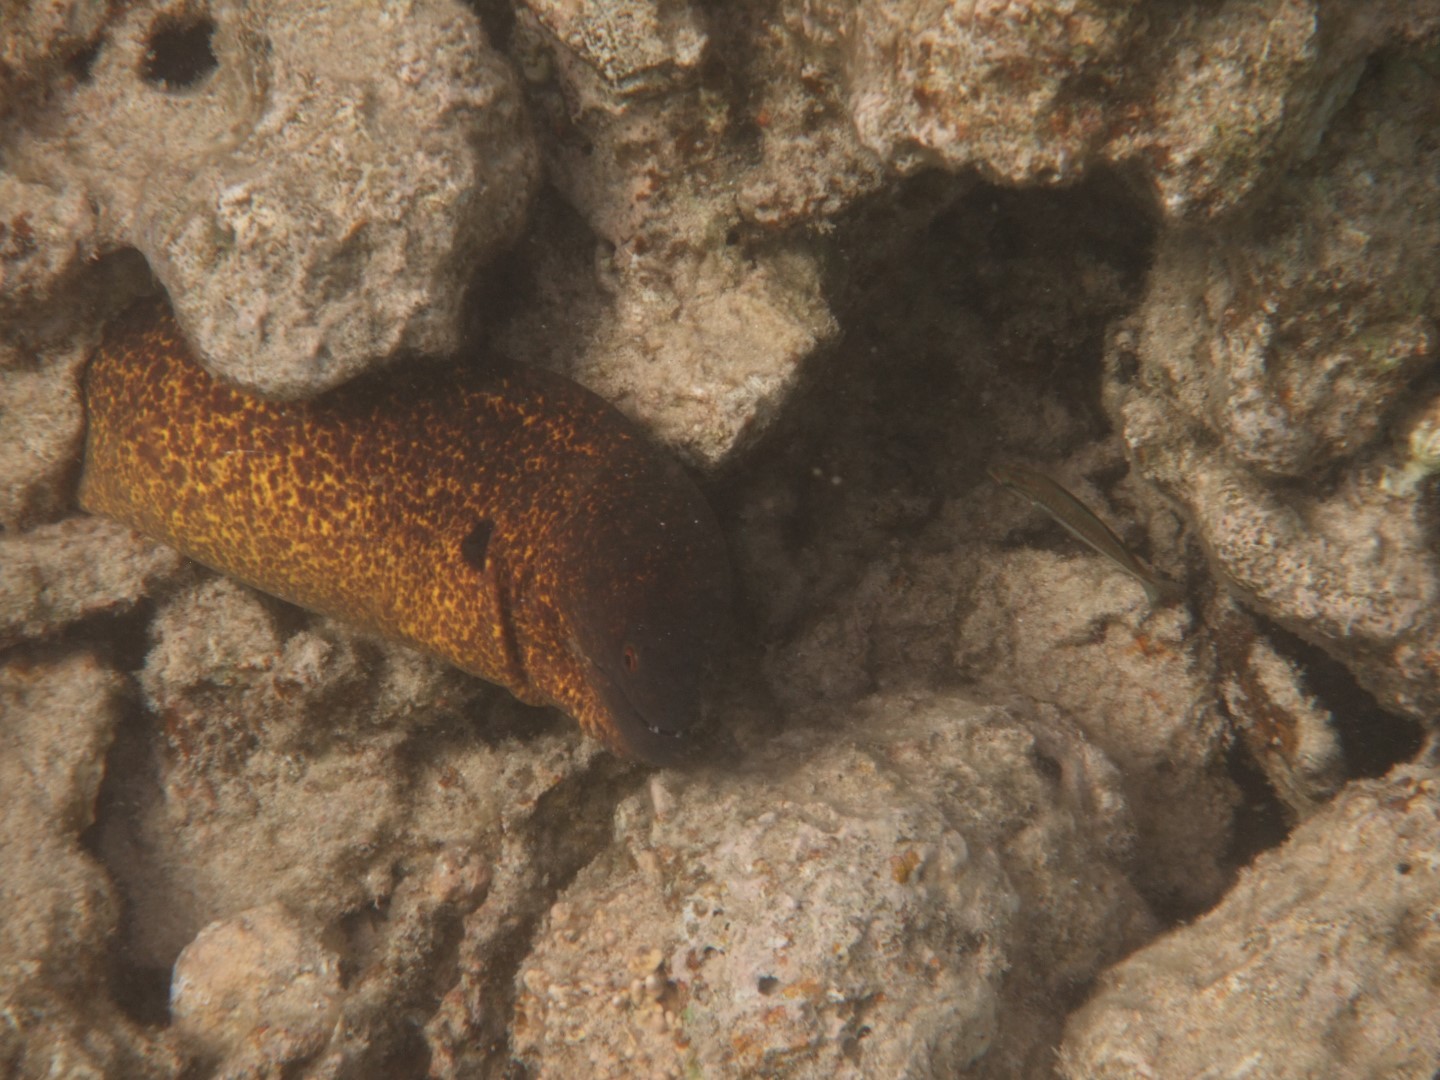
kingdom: Animalia
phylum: Chordata
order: Anguilliformes
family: Muraenidae
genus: Gymnothorax
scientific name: Gymnothorax flavimarginatus
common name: Yellow-edged moray
